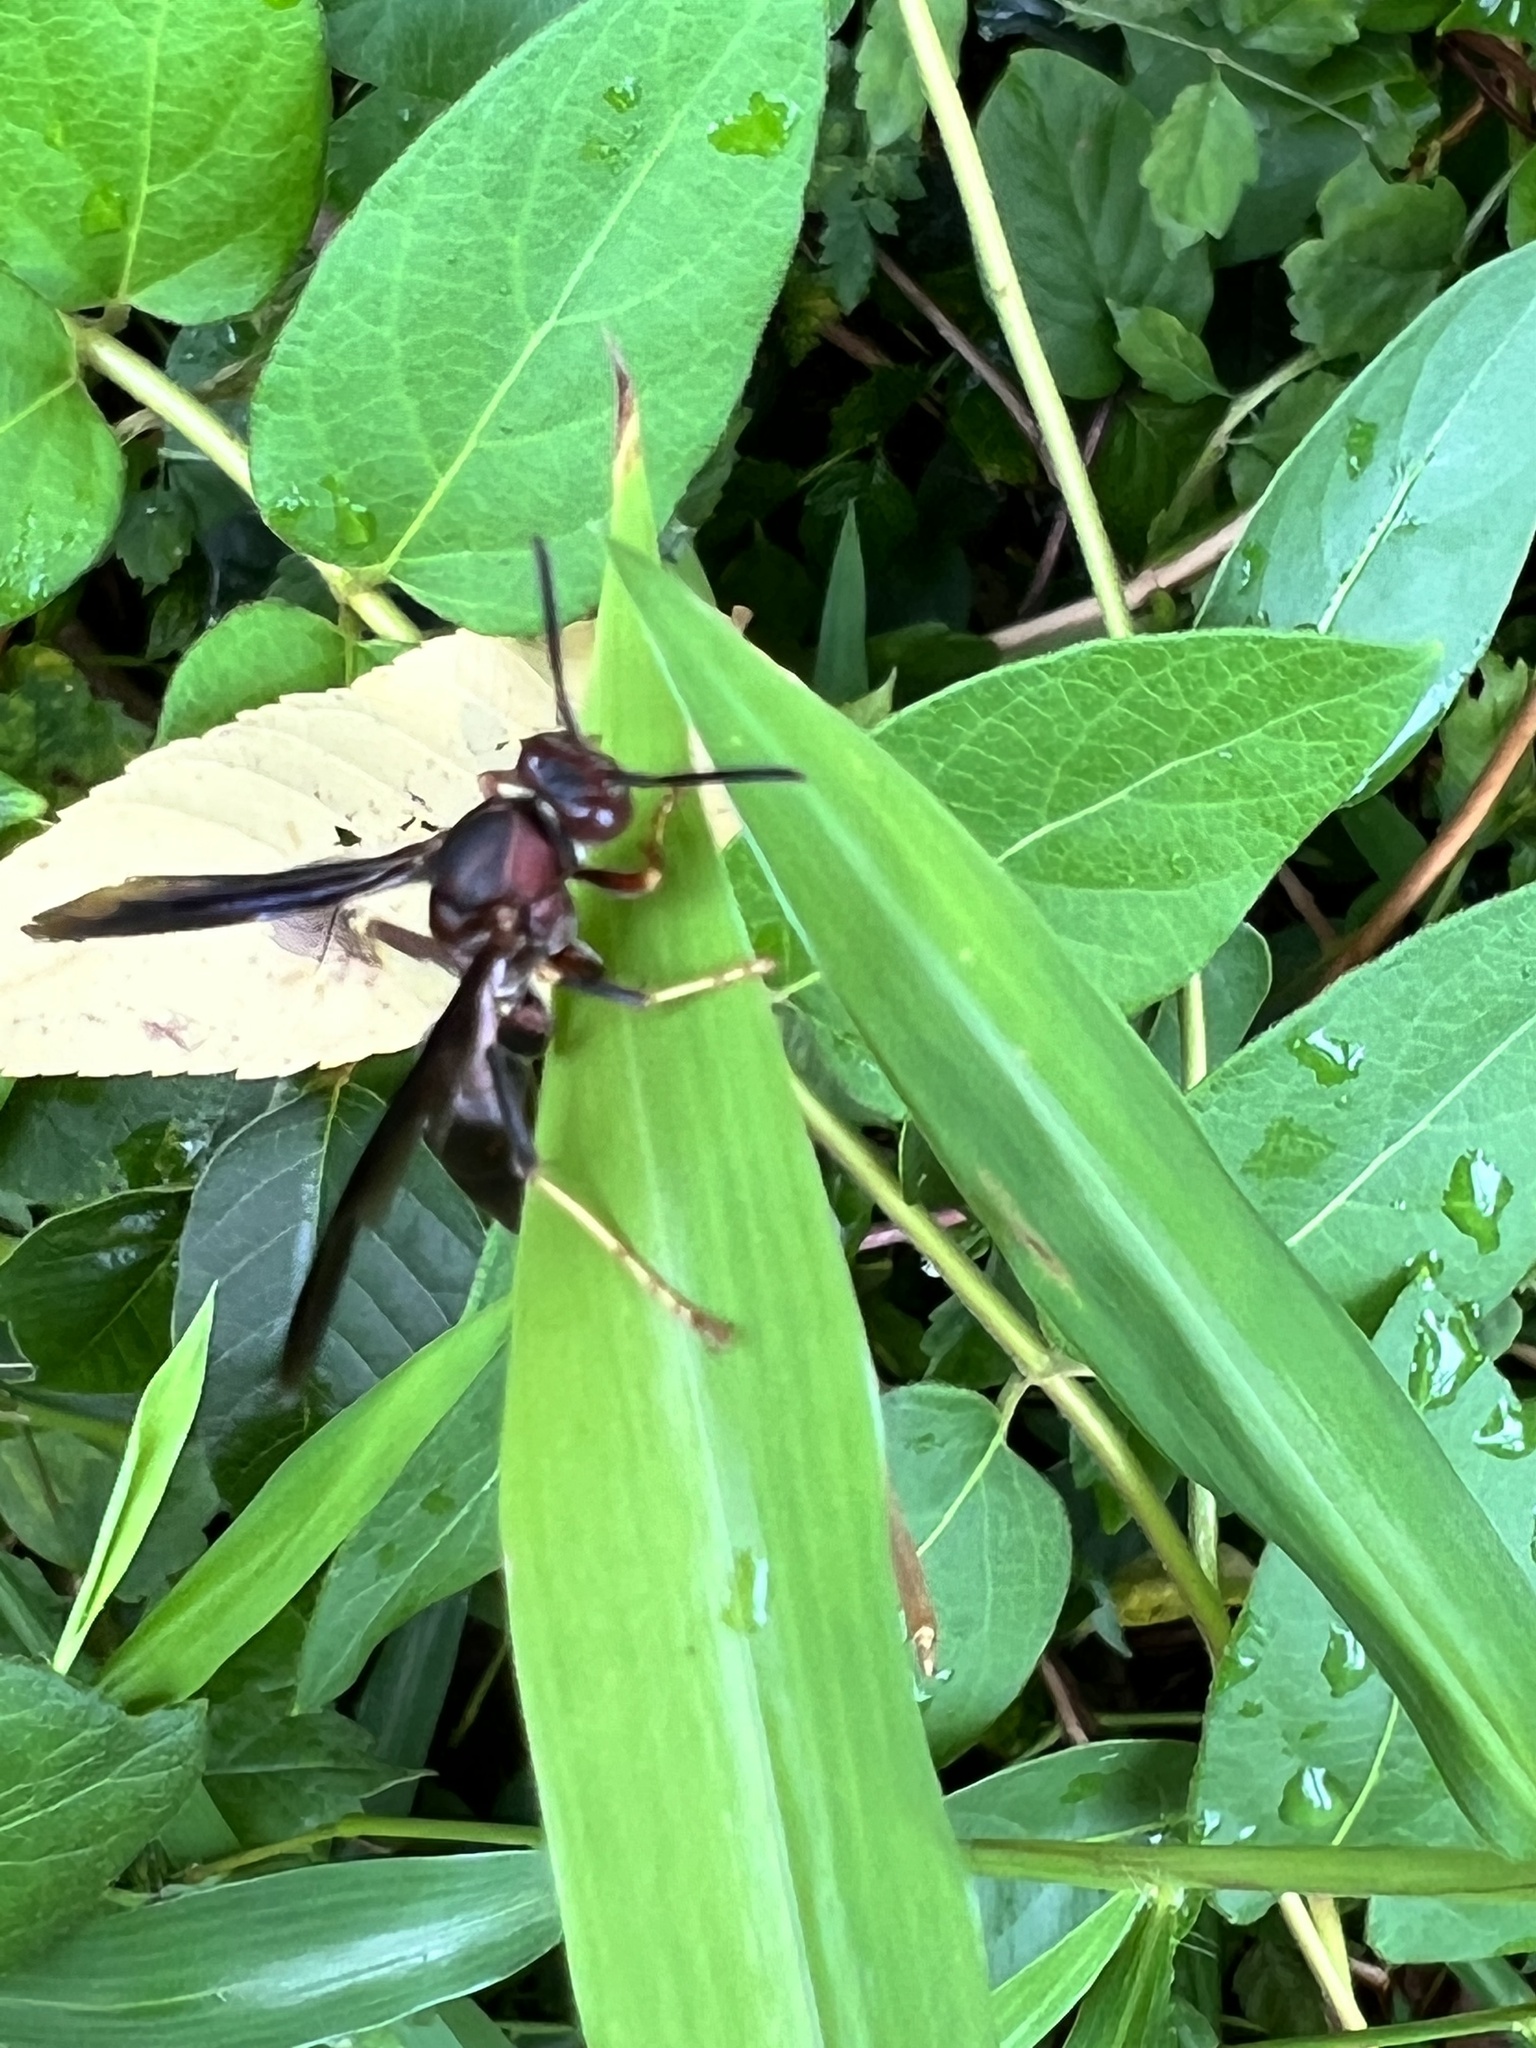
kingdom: Animalia
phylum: Arthropoda
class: Insecta
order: Hymenoptera
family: Eumenidae
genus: Polistes
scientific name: Polistes metricus
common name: Metric paper wasp
